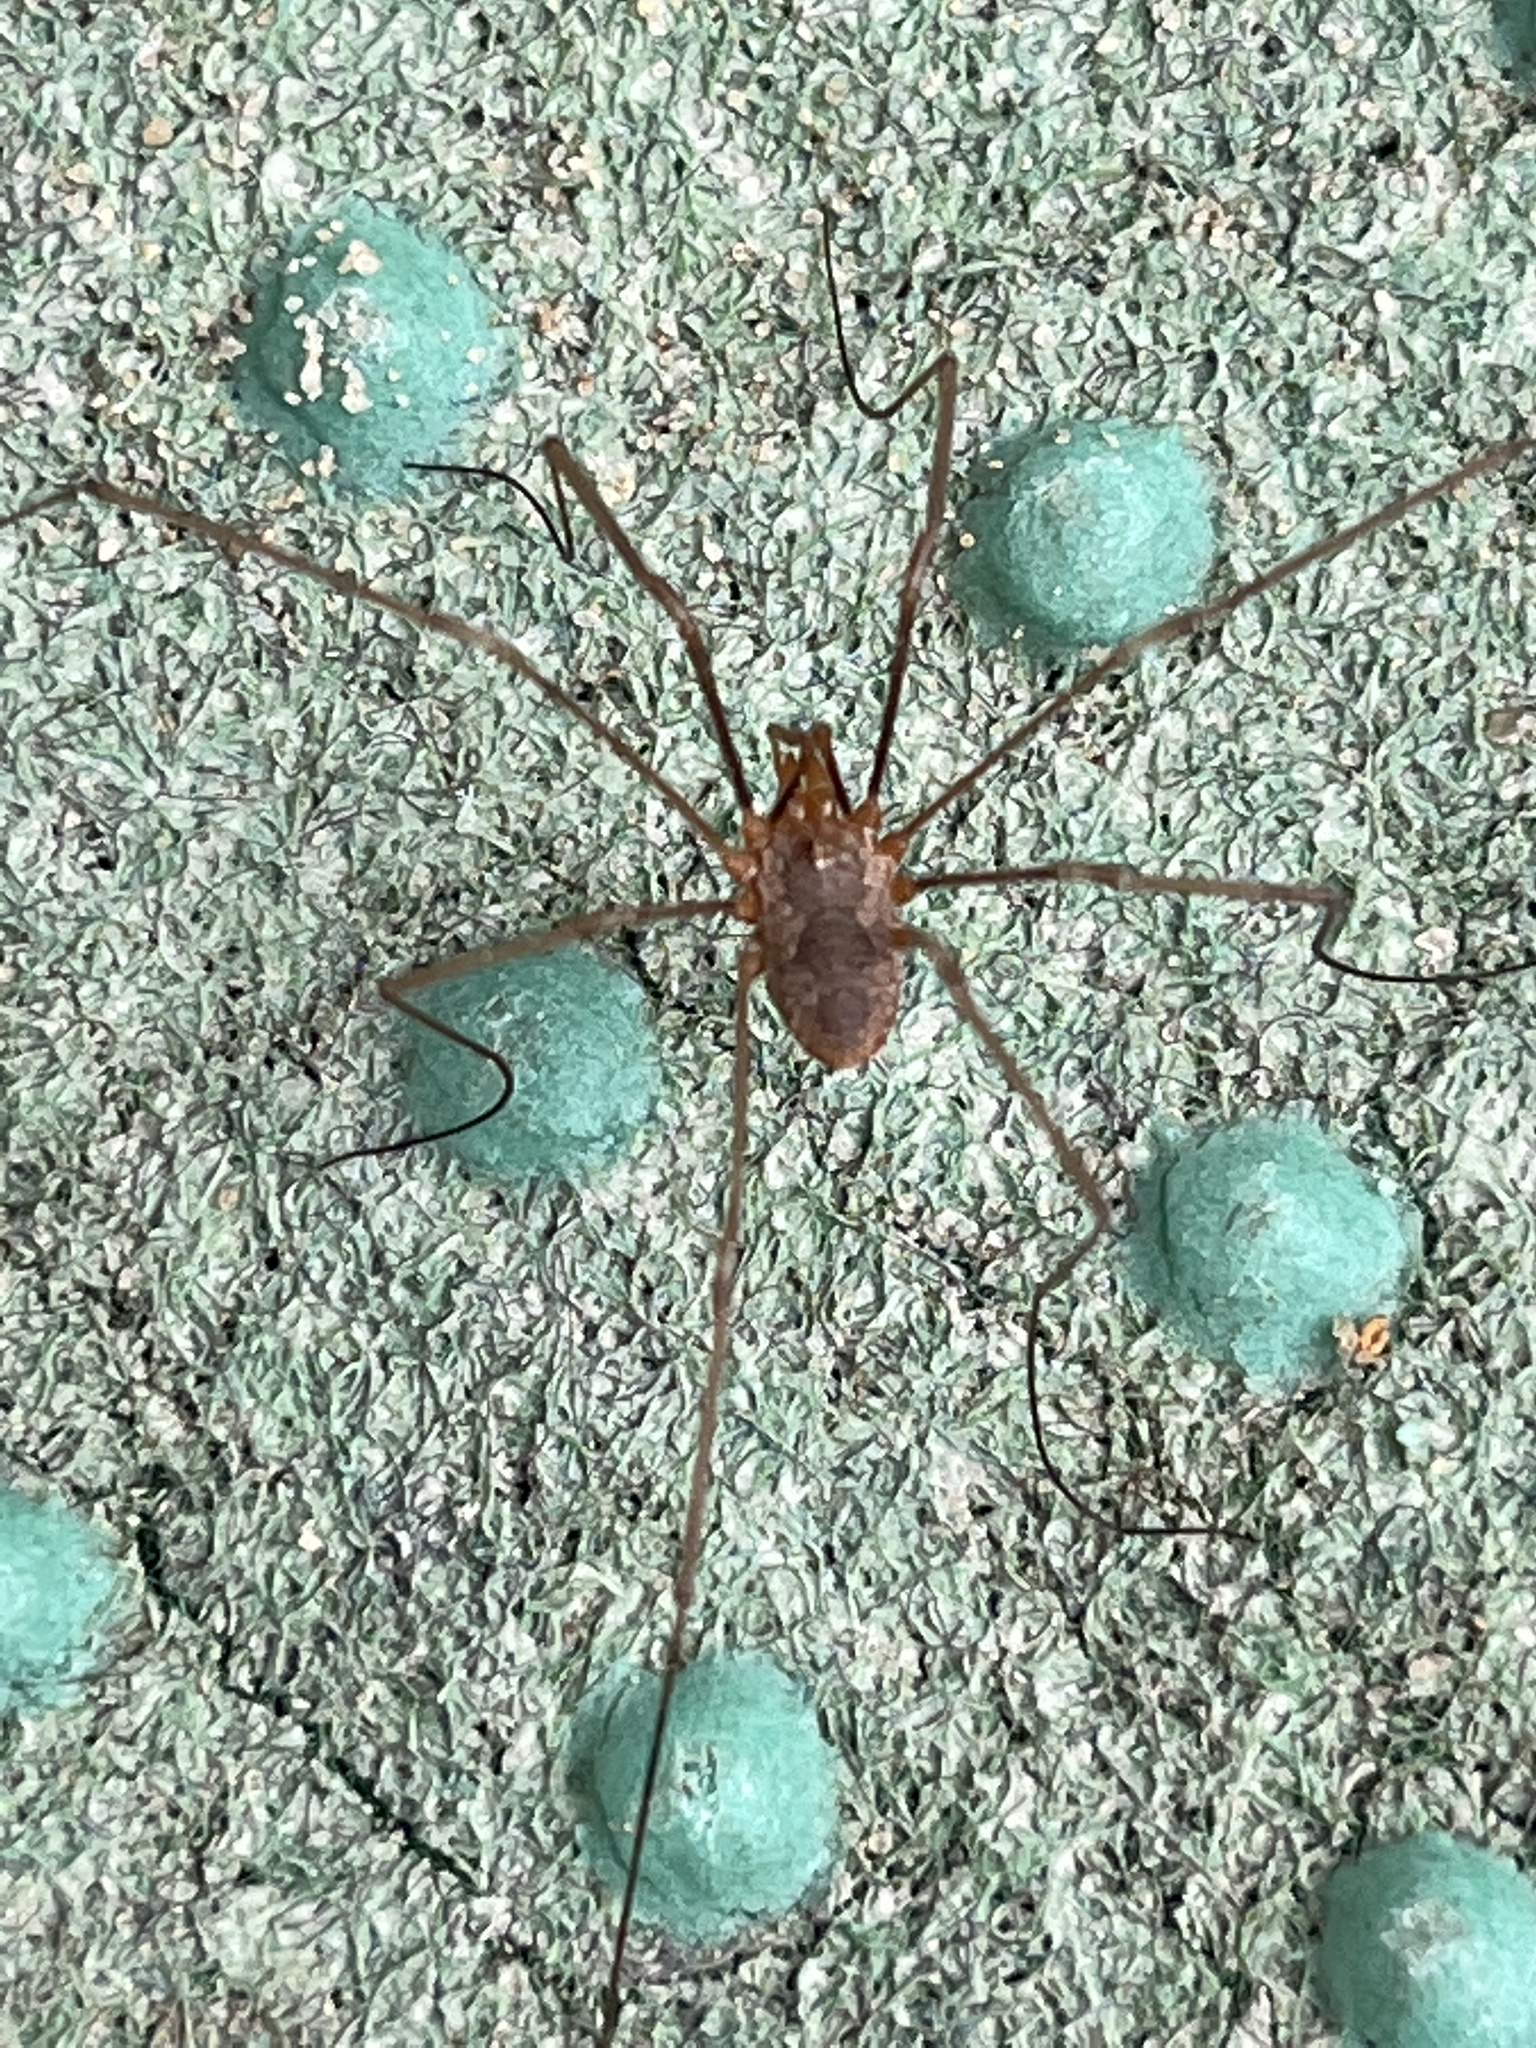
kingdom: Animalia
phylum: Arthropoda
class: Arachnida
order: Opiliones
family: Phalangiidae
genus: Phalangium
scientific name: Phalangium opilio
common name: Daddy longleg
